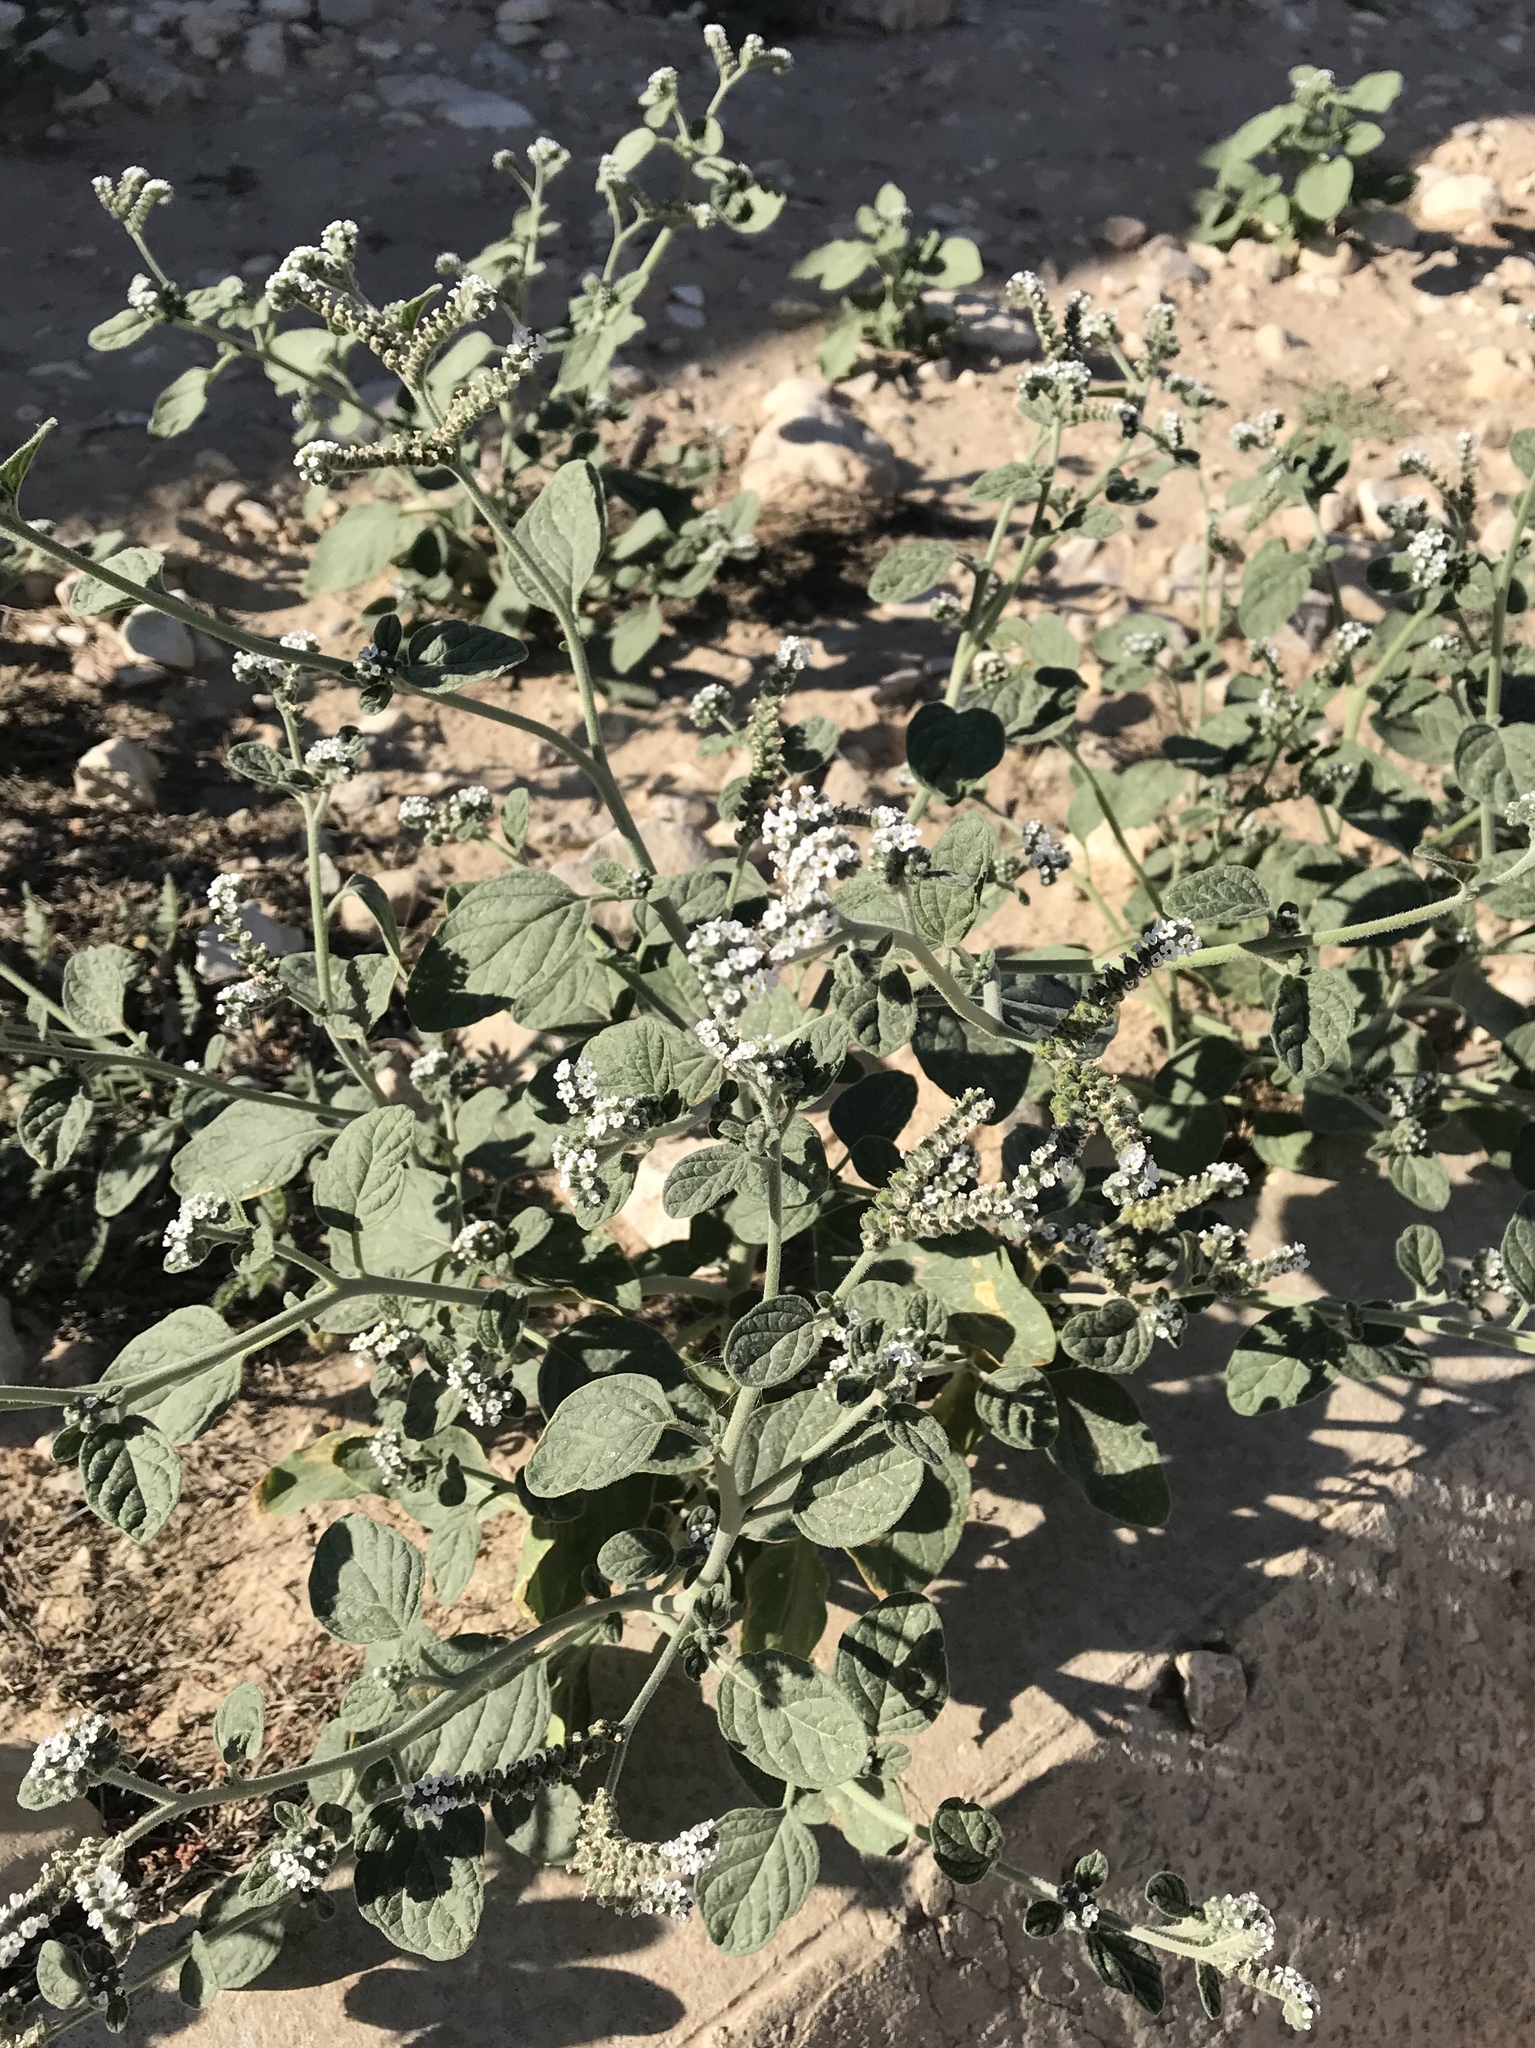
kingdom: Plantae
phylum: Tracheophyta
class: Magnoliopsida
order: Boraginales
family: Heliotropiaceae
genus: Heliotropium
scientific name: Heliotropium europaeum
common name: European heliotrope
